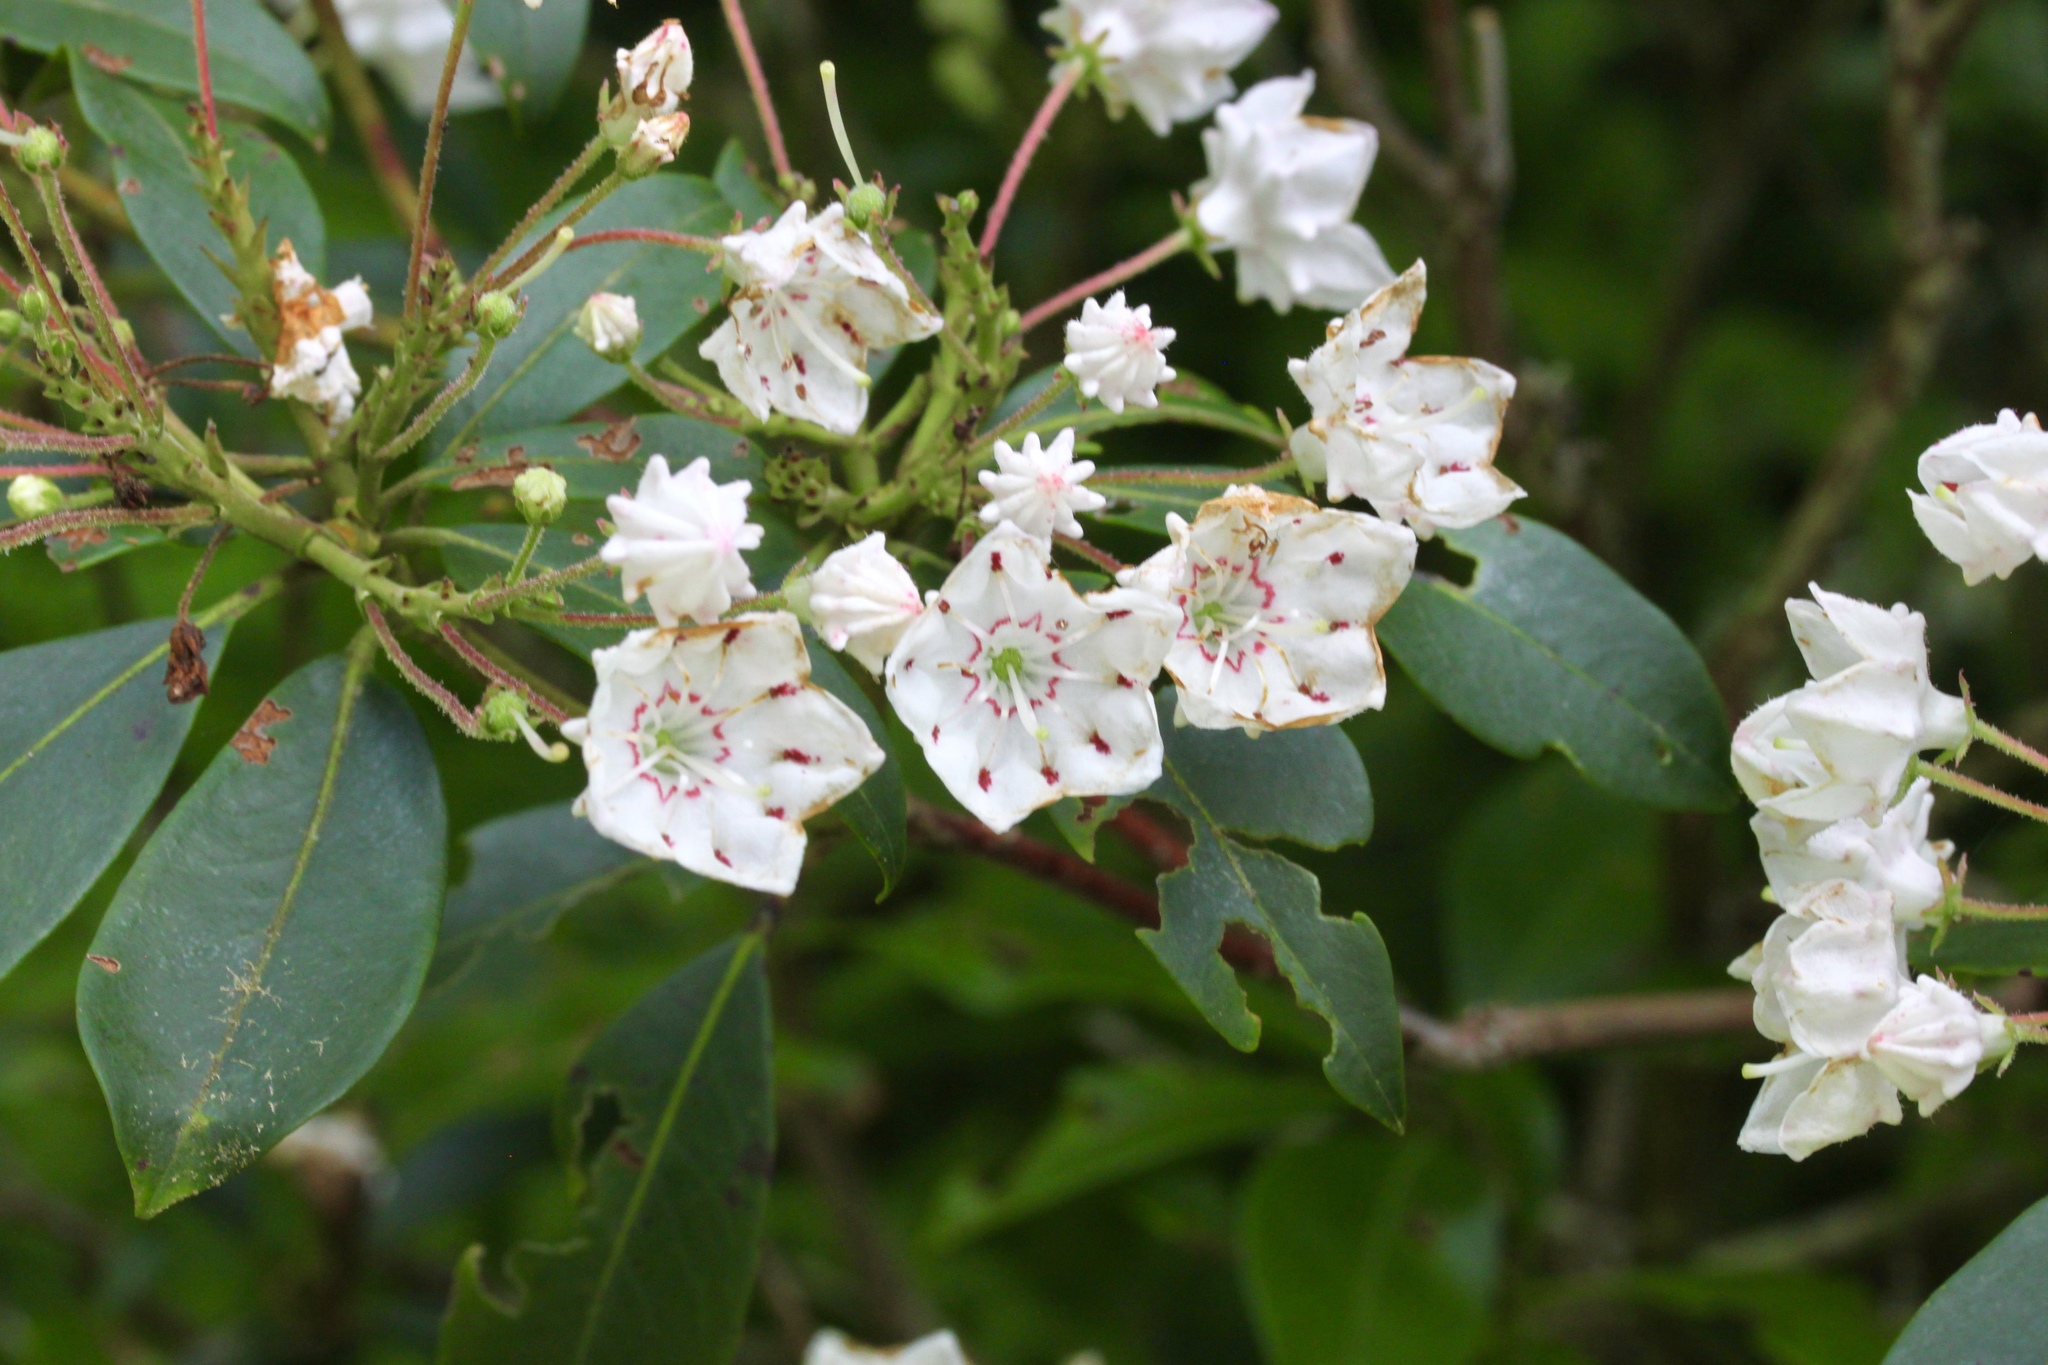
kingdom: Plantae
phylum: Tracheophyta
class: Magnoliopsida
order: Ericales
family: Ericaceae
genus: Kalmia
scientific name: Kalmia latifolia
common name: Mountain-laurel
